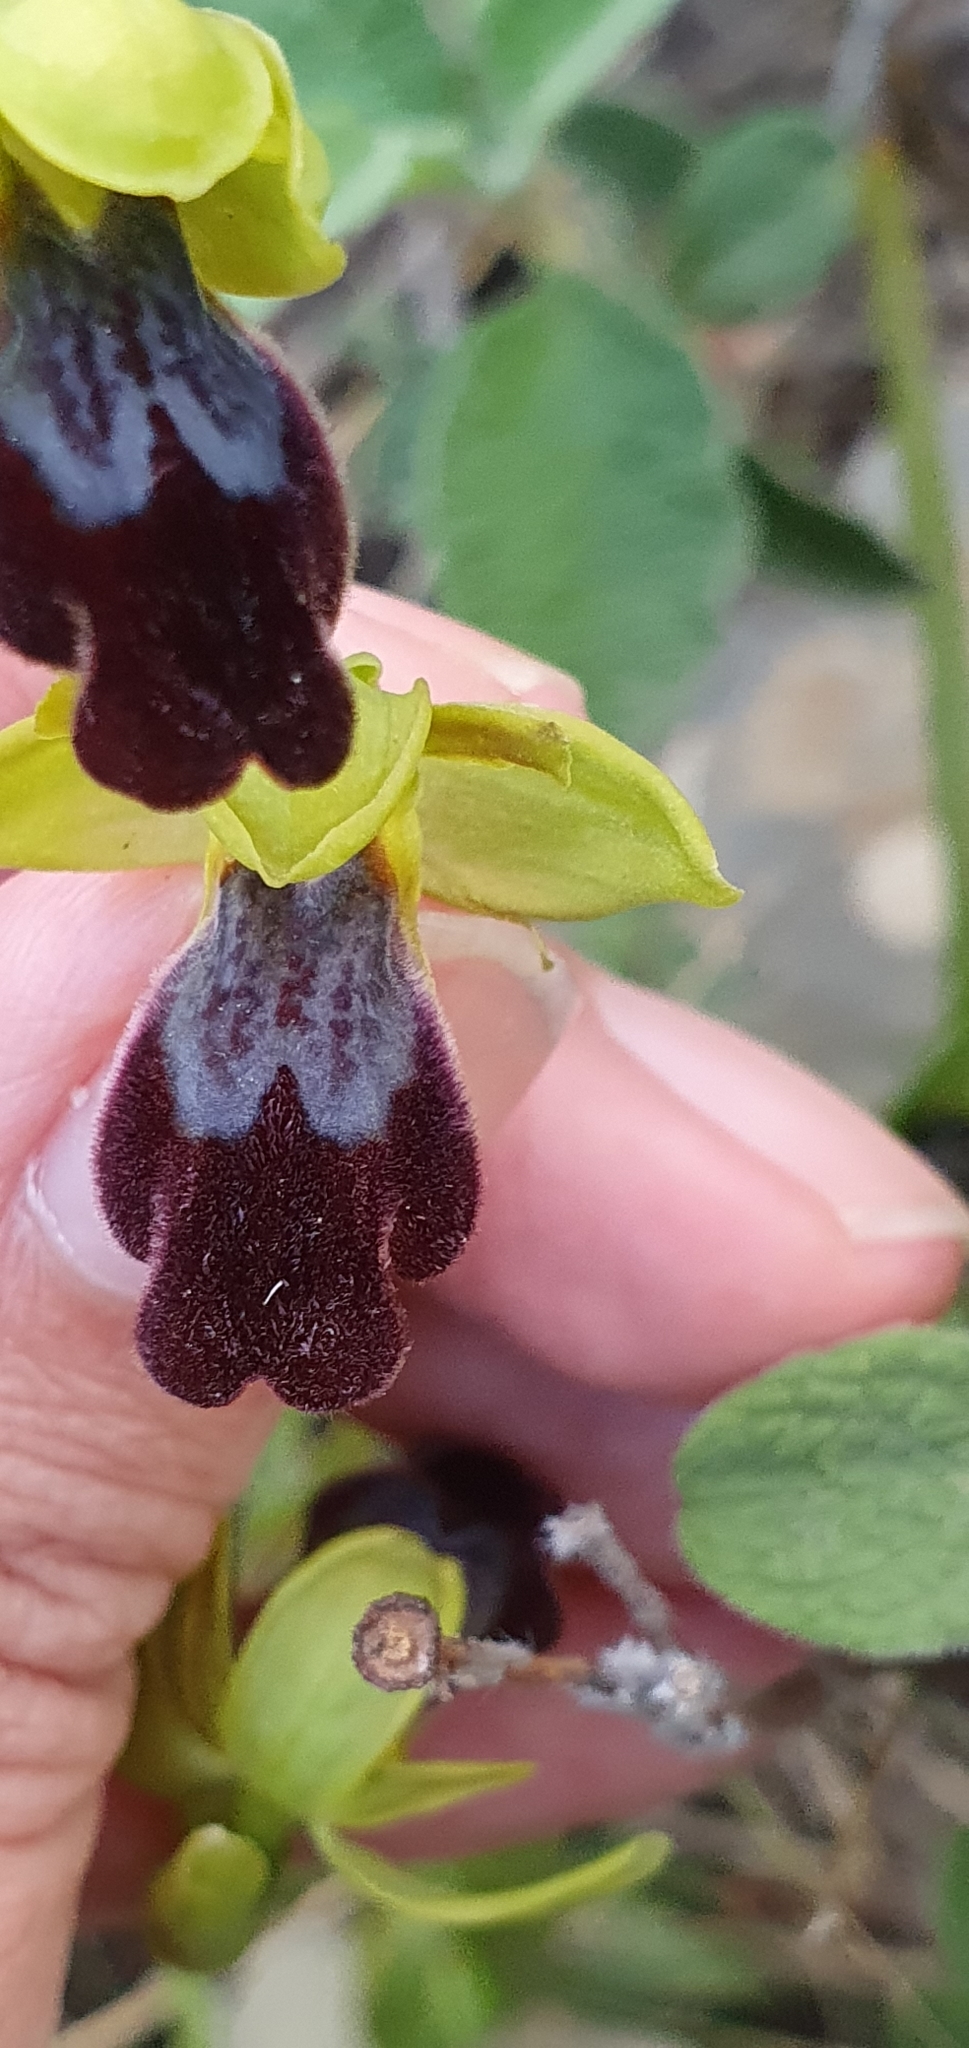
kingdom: Plantae
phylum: Tracheophyta
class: Liliopsida
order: Asparagales
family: Orchidaceae
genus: Ophrys
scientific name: Ophrys fusca
